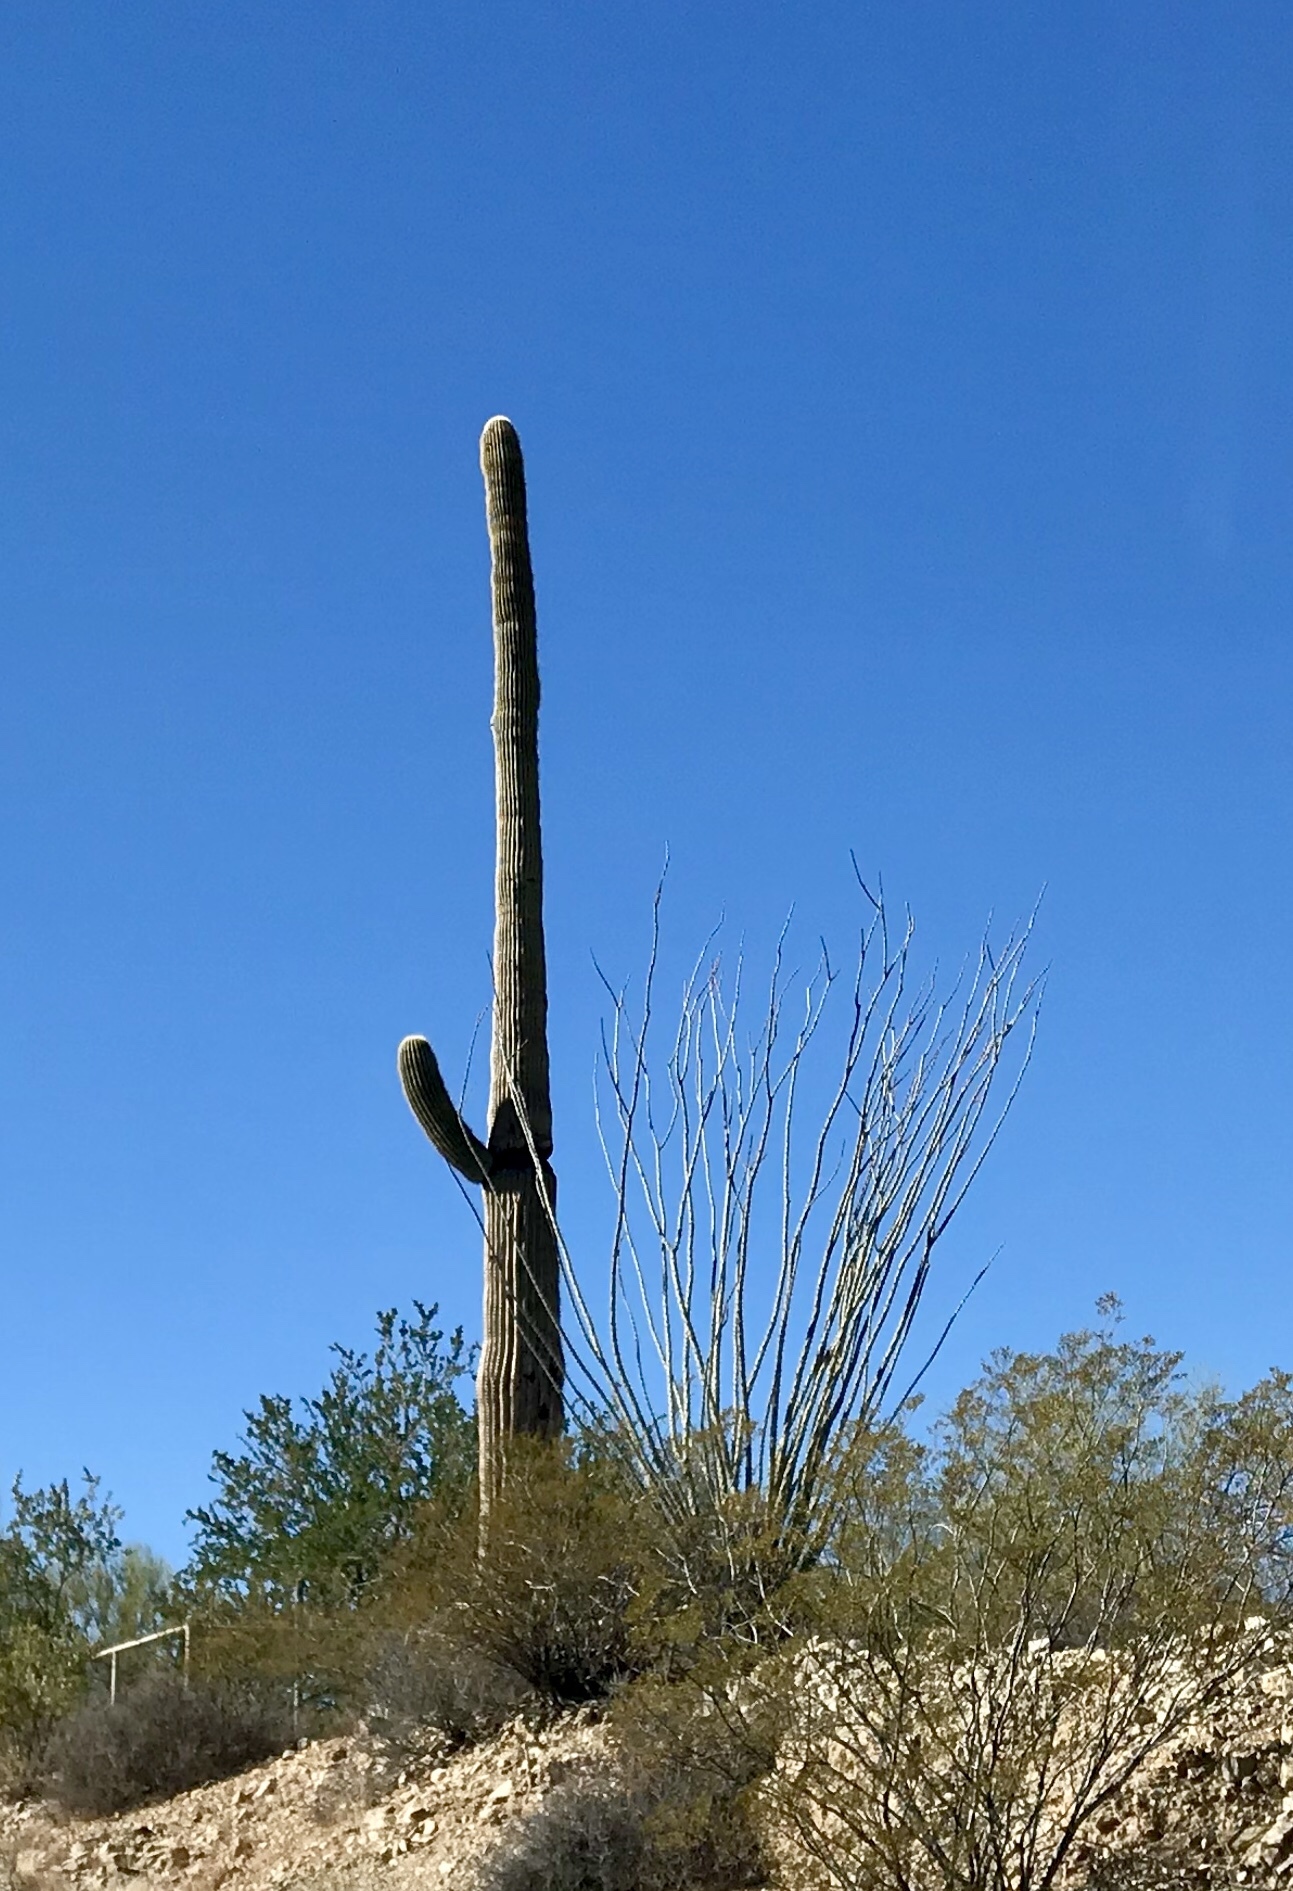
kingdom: Plantae
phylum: Tracheophyta
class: Magnoliopsida
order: Caryophyllales
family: Cactaceae
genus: Carnegiea
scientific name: Carnegiea gigantea
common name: Saguaro
